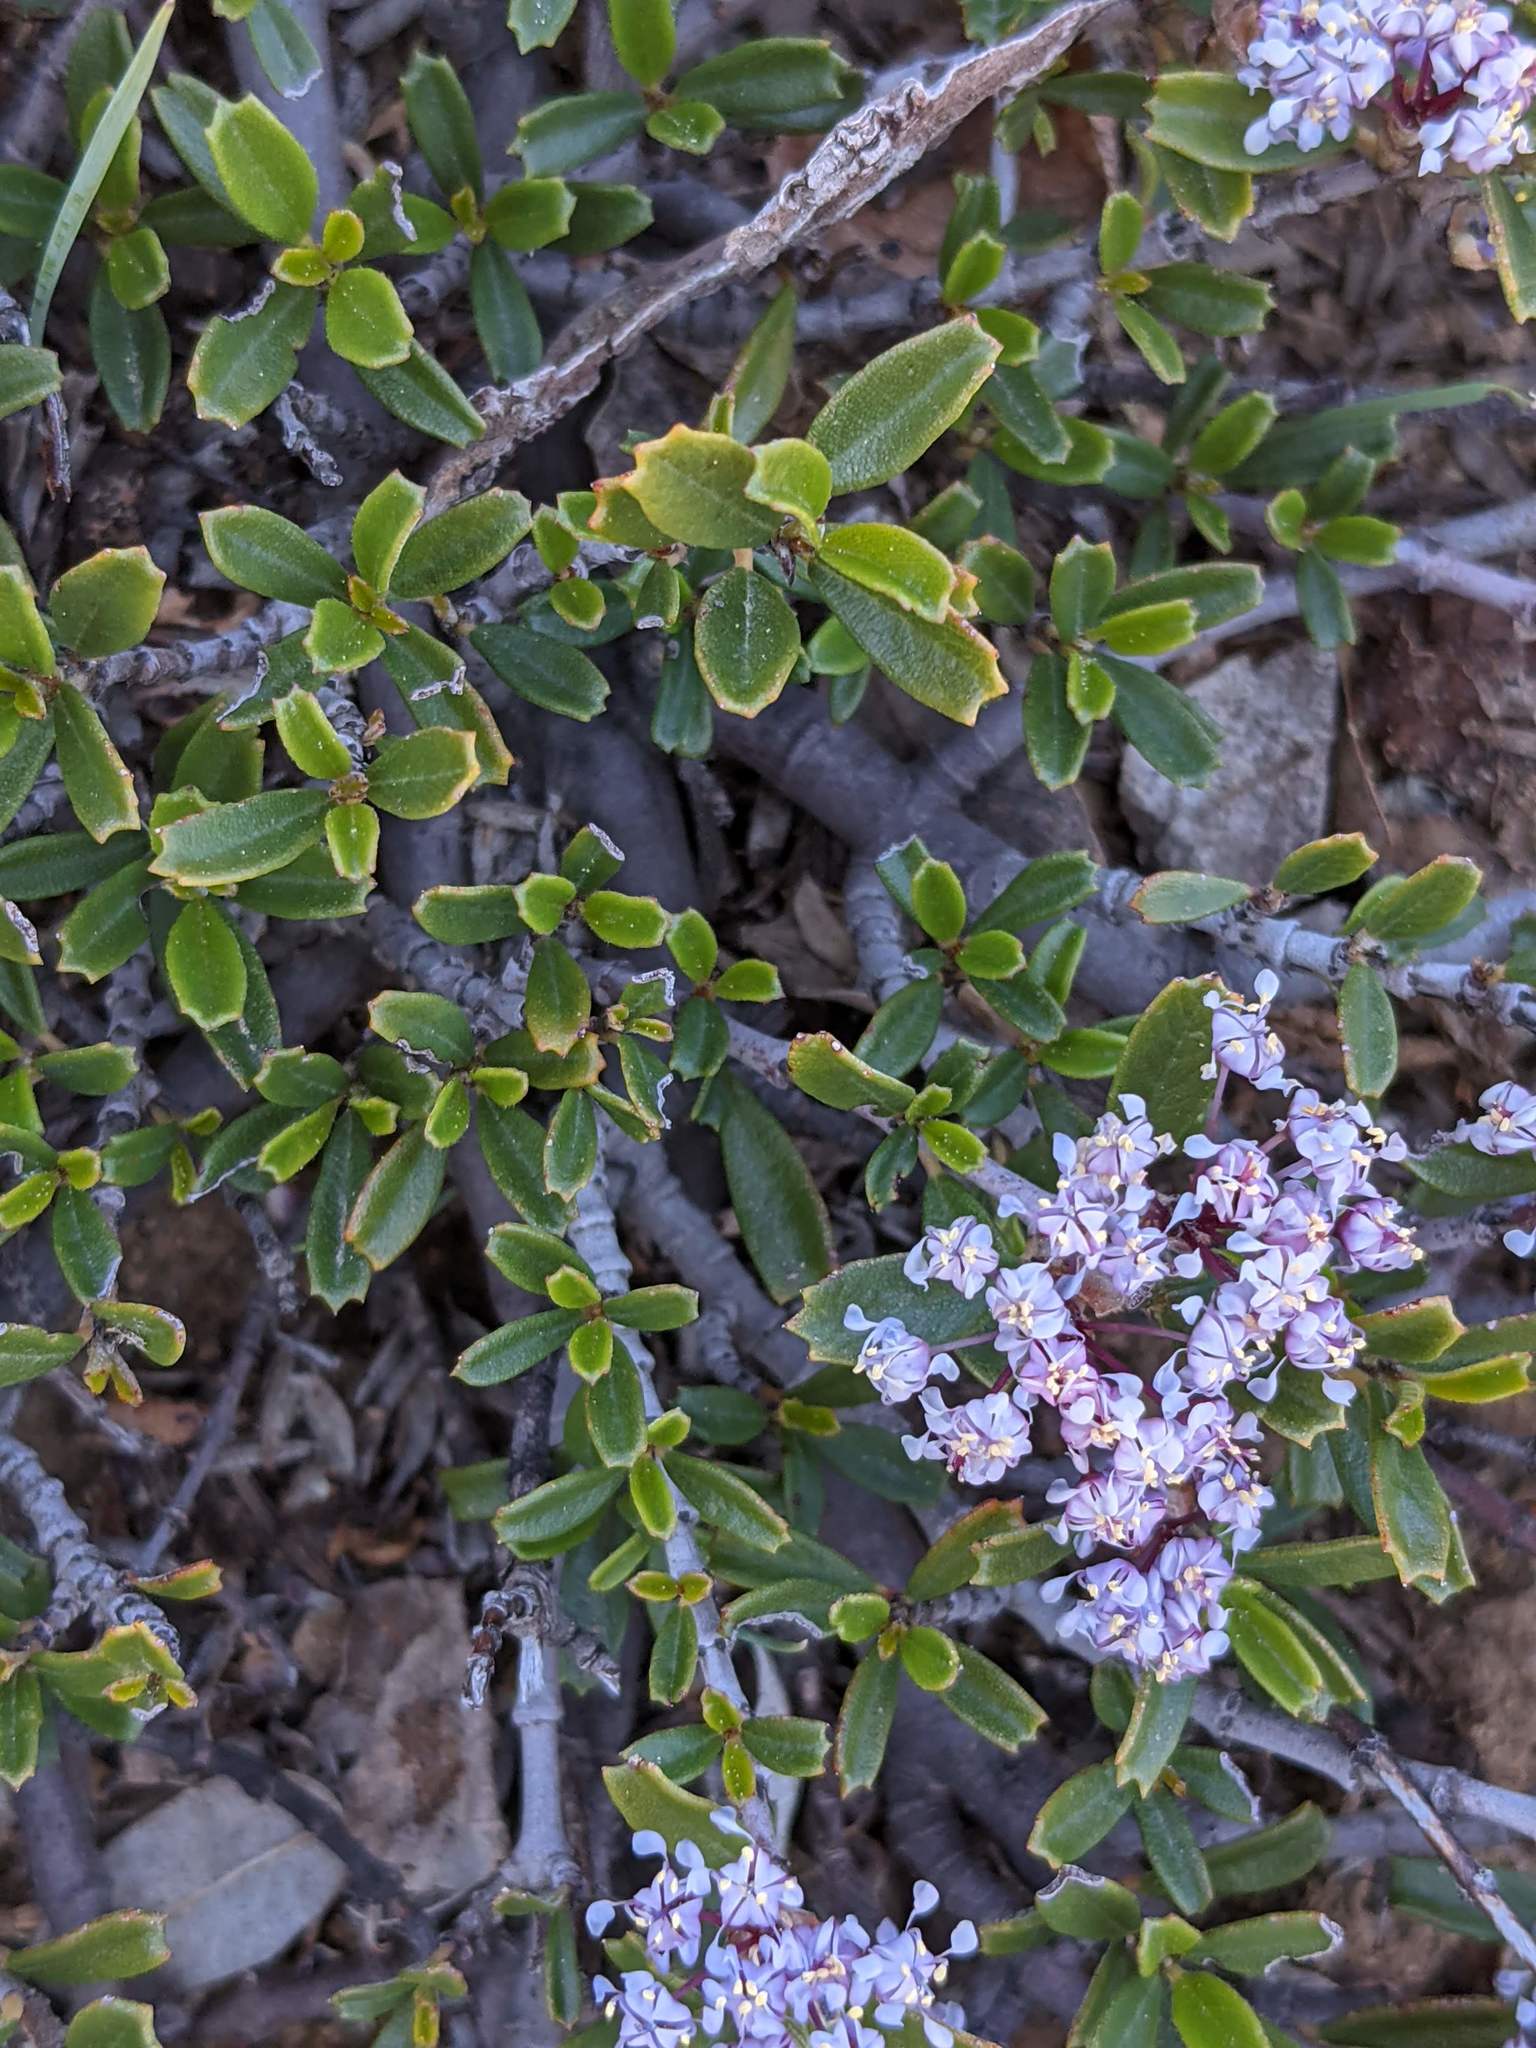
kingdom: Plantae
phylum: Tracheophyta
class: Magnoliopsida
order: Rosales
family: Rhamnaceae
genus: Ceanothus
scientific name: Ceanothus pumilus
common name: Siskiyou-mat
